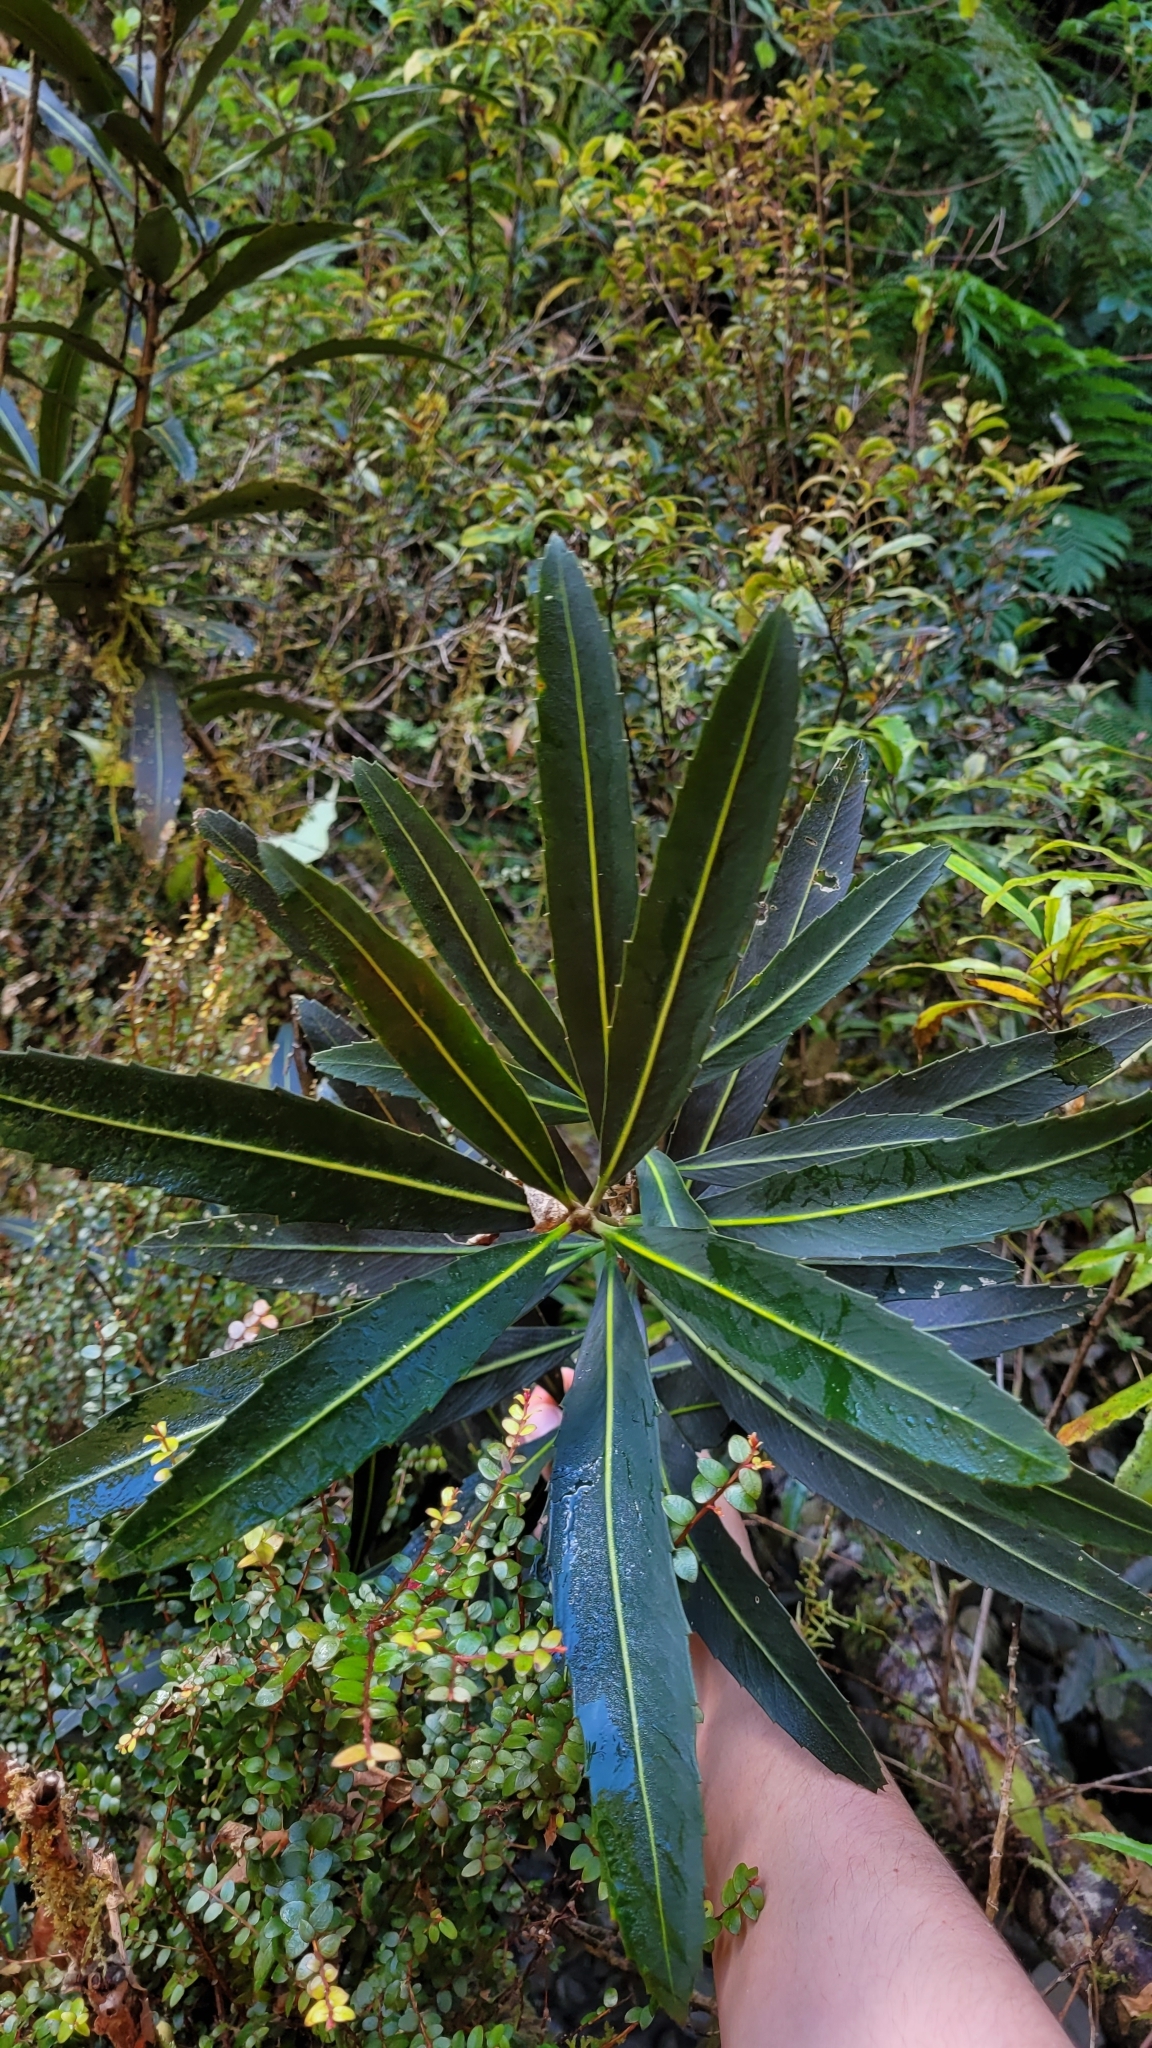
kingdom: Plantae
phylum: Tracheophyta
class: Magnoliopsida
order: Apiales
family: Araliaceae
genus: Pseudopanax
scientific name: Pseudopanax linearis
